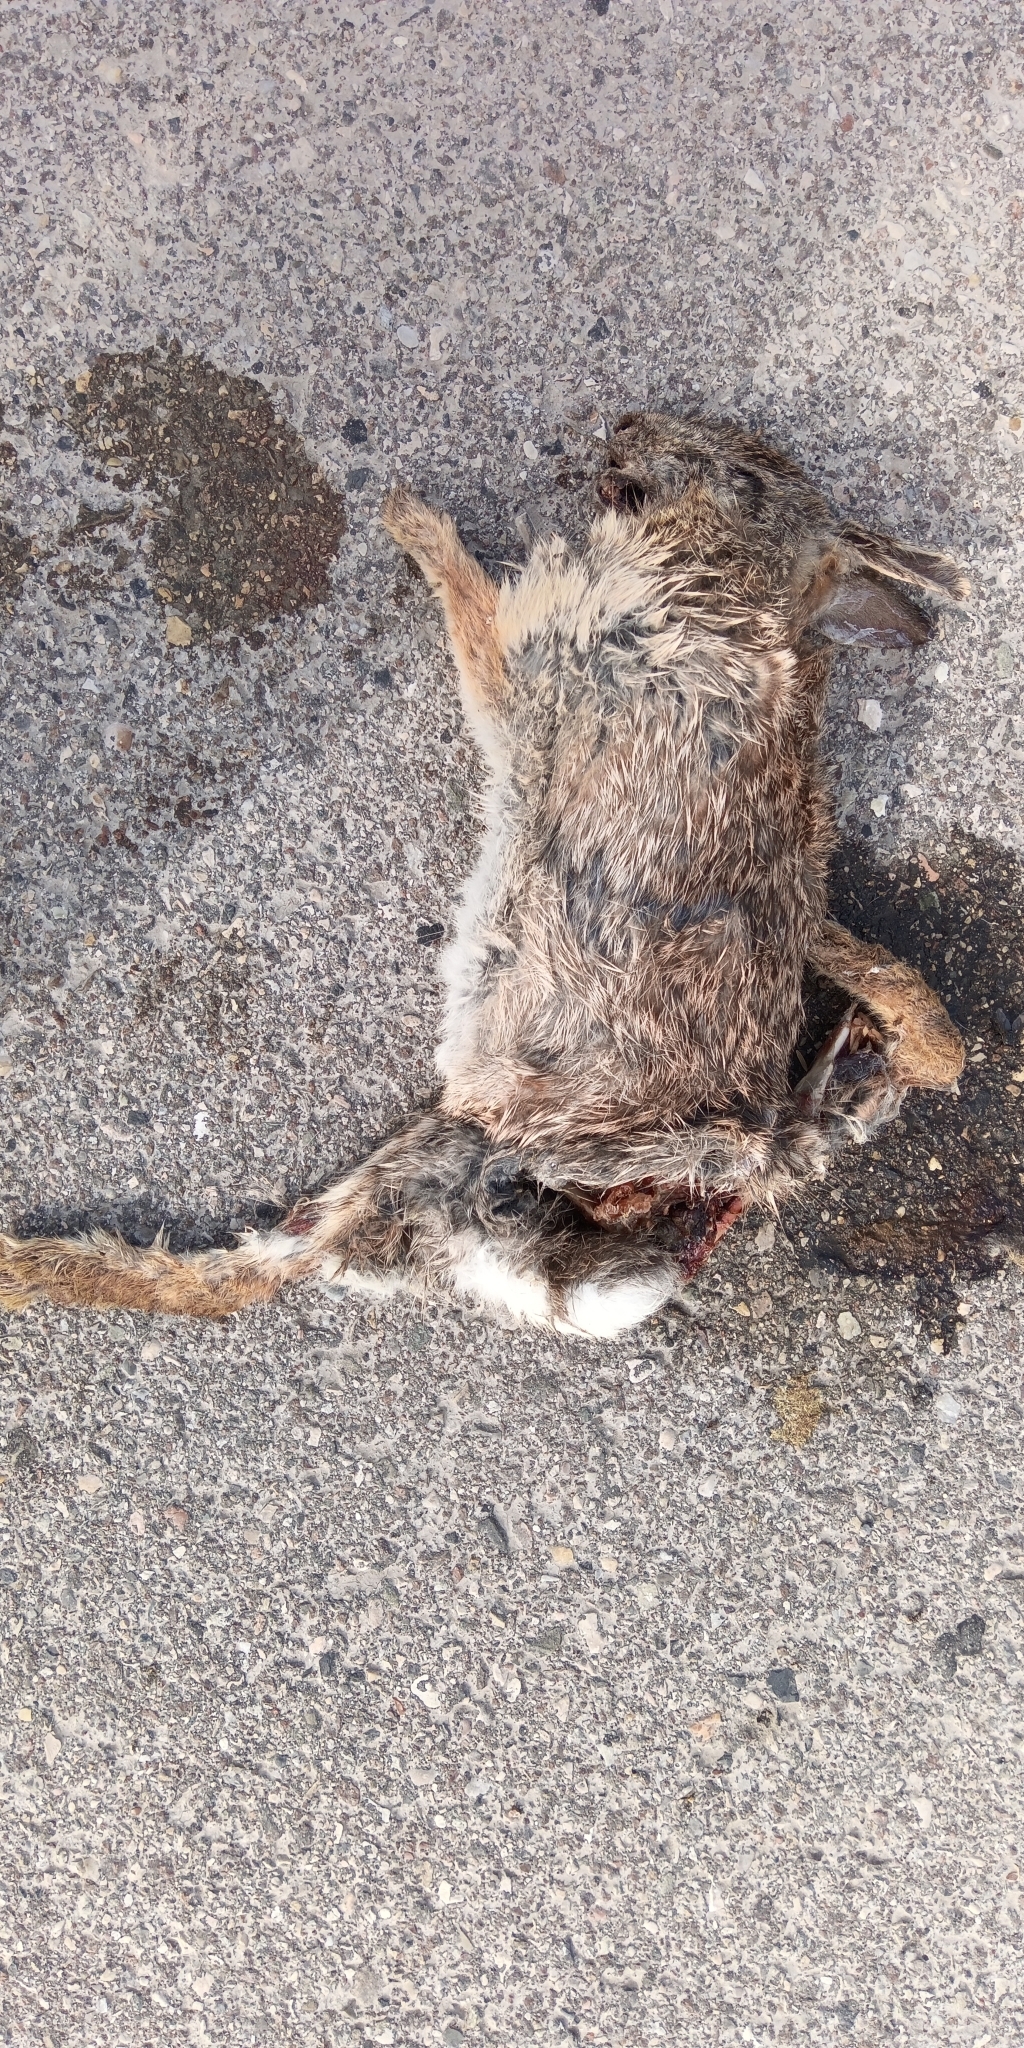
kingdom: Animalia
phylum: Chordata
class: Mammalia
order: Lagomorpha
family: Leporidae
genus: Sylvilagus
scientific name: Sylvilagus floridanus
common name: Eastern cottontail
